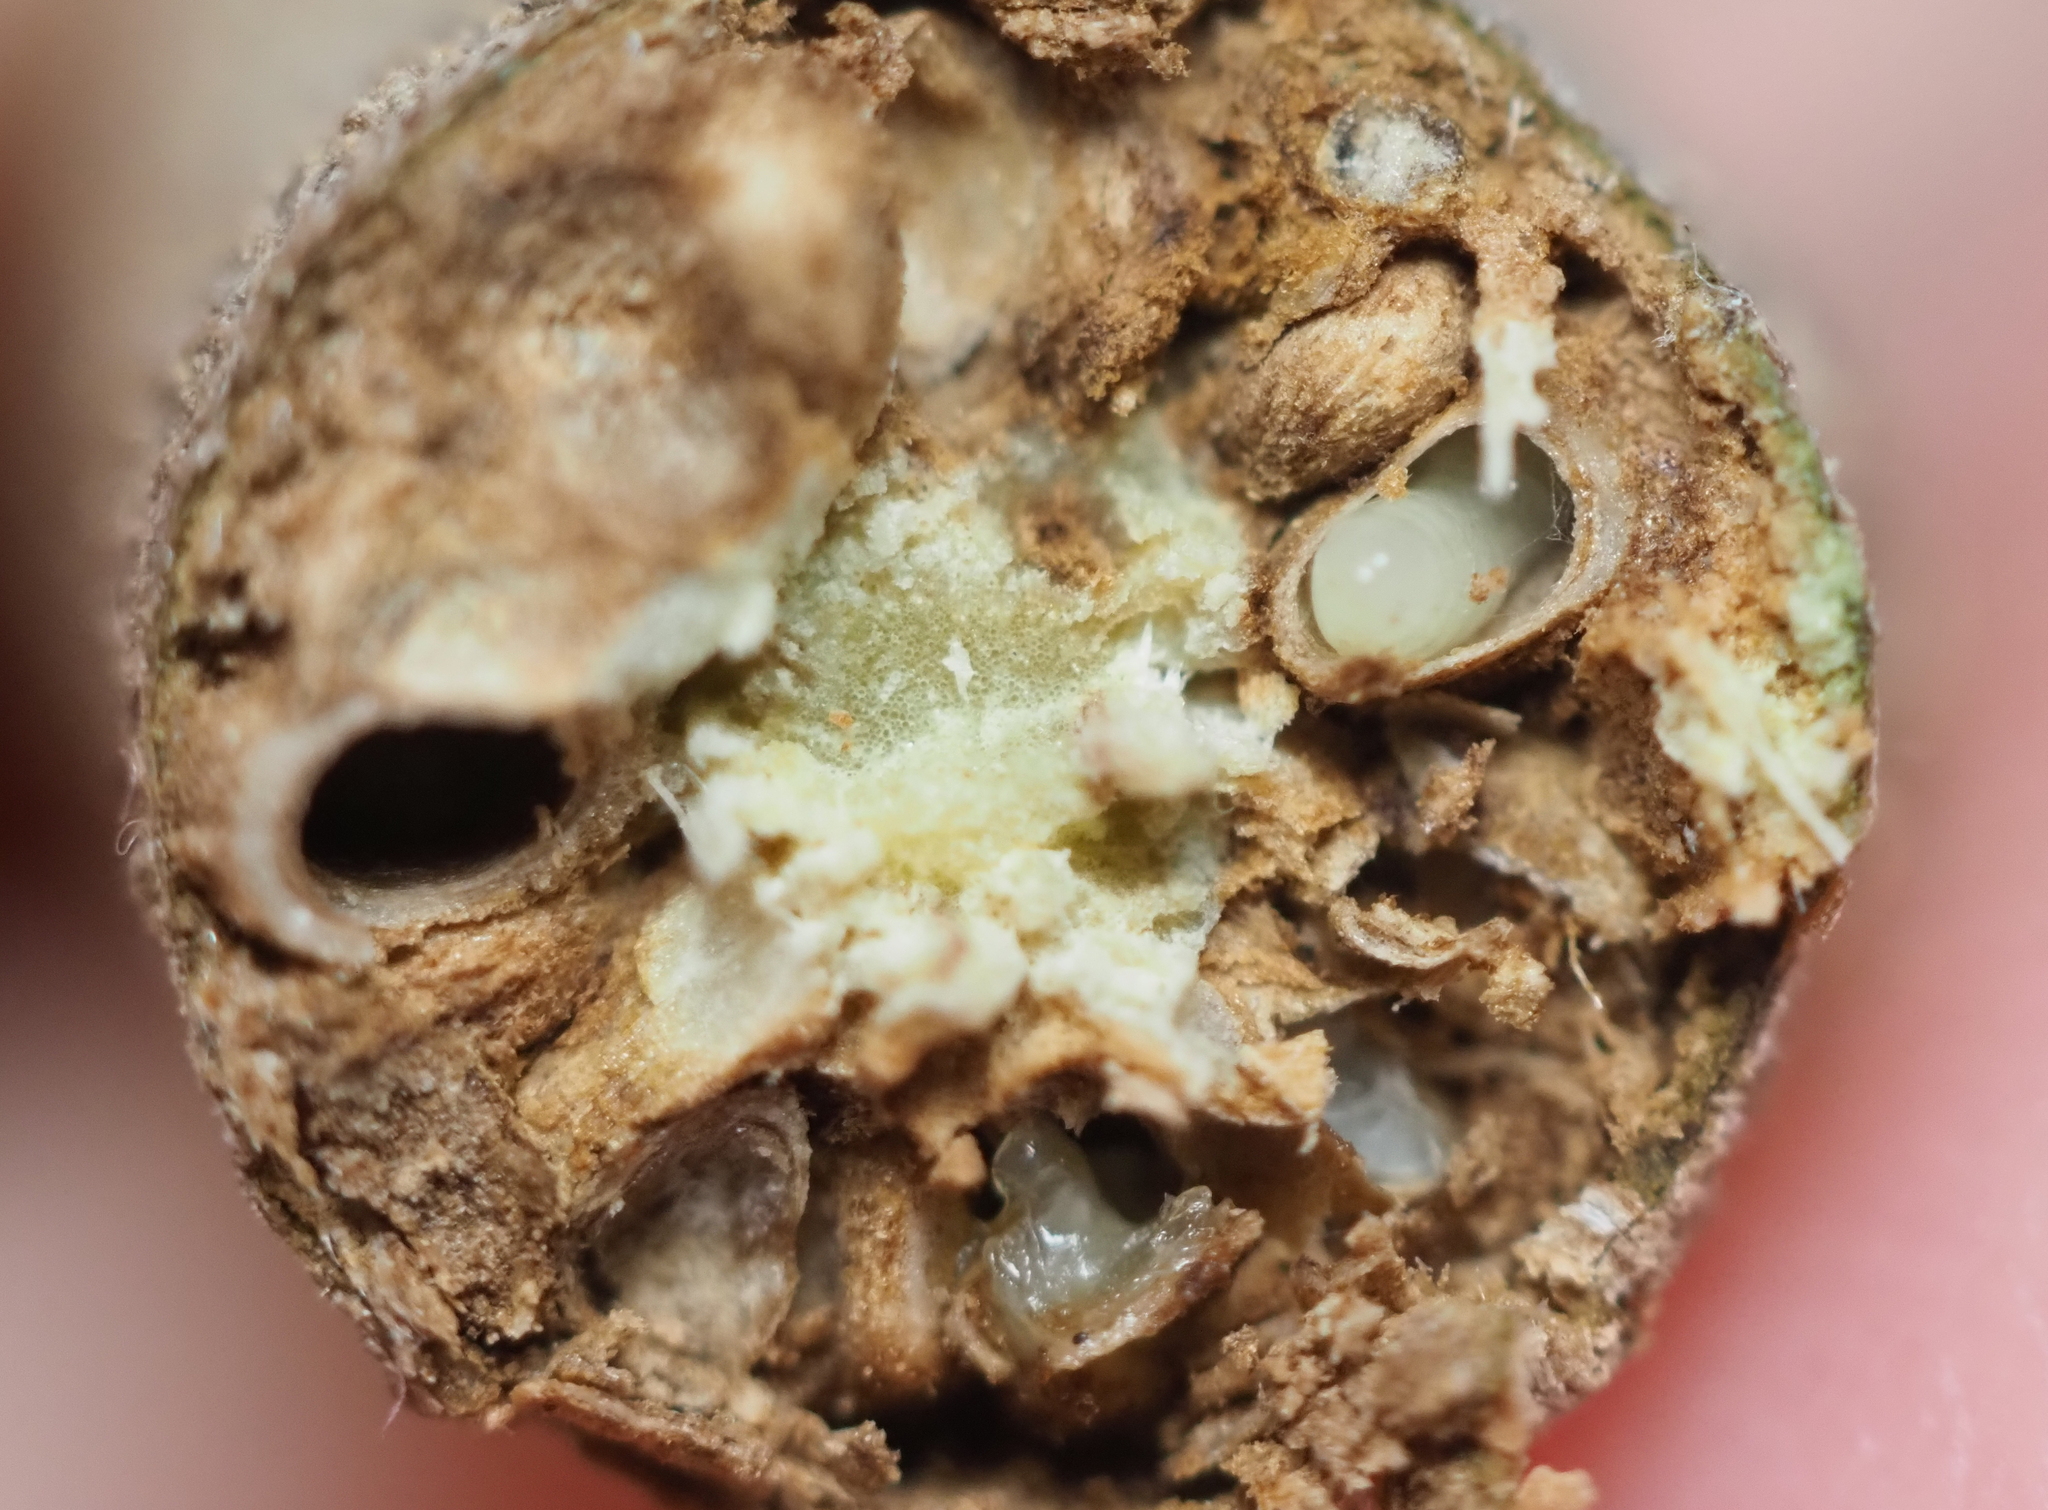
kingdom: Animalia
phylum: Arthropoda
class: Insecta
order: Hymenoptera
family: Cynipidae
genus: Bassettia
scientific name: Bassettia pallida
